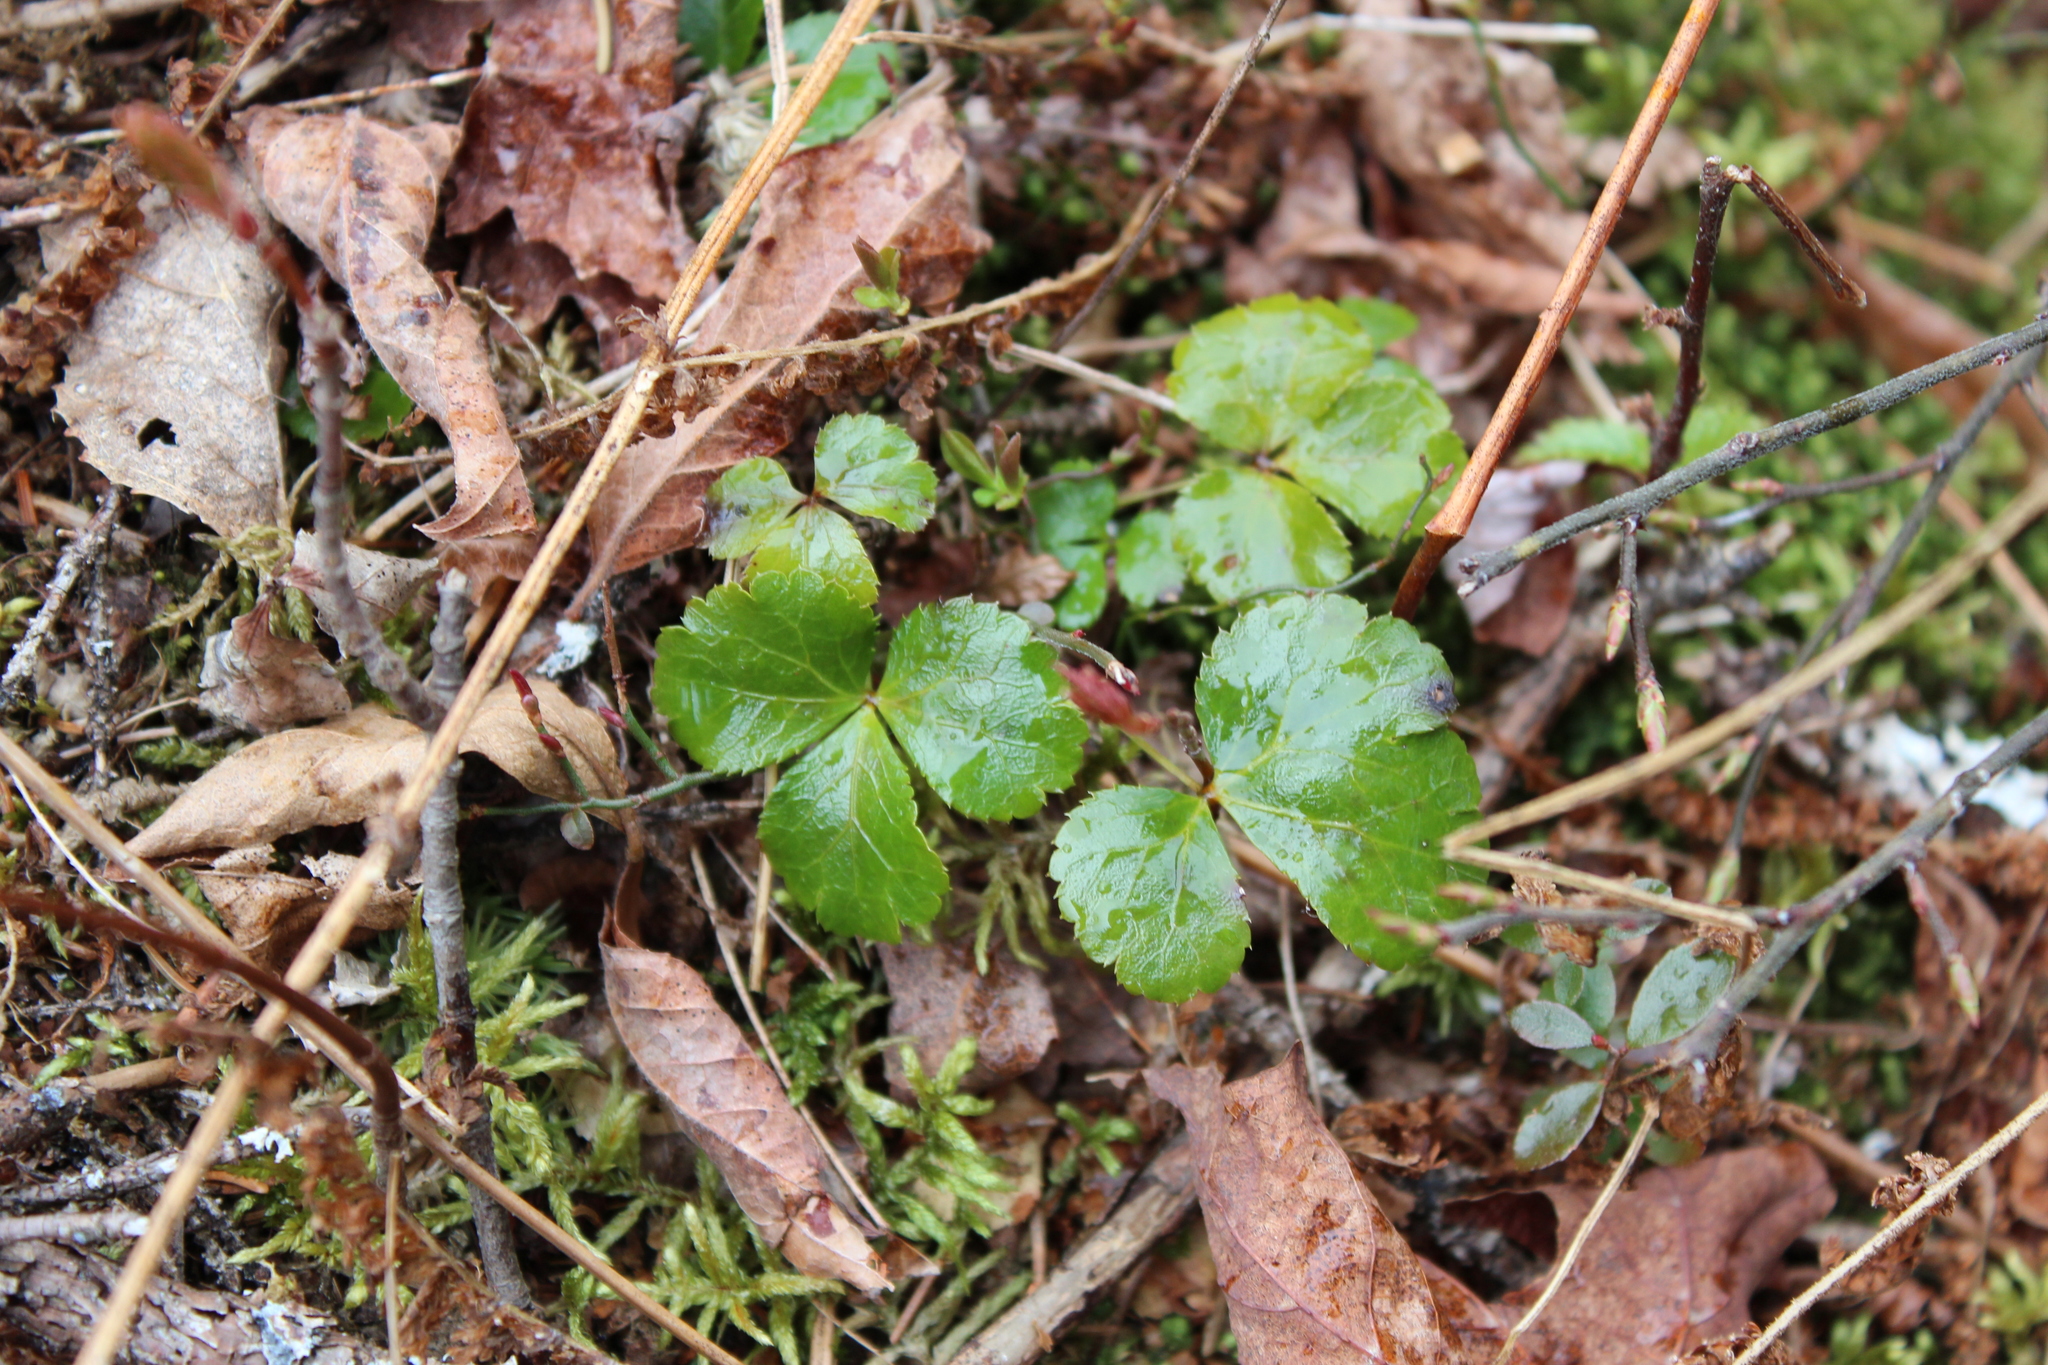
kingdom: Plantae
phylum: Tracheophyta
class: Magnoliopsida
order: Ranunculales
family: Ranunculaceae
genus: Coptis
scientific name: Coptis trifolia
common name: Canker-root
